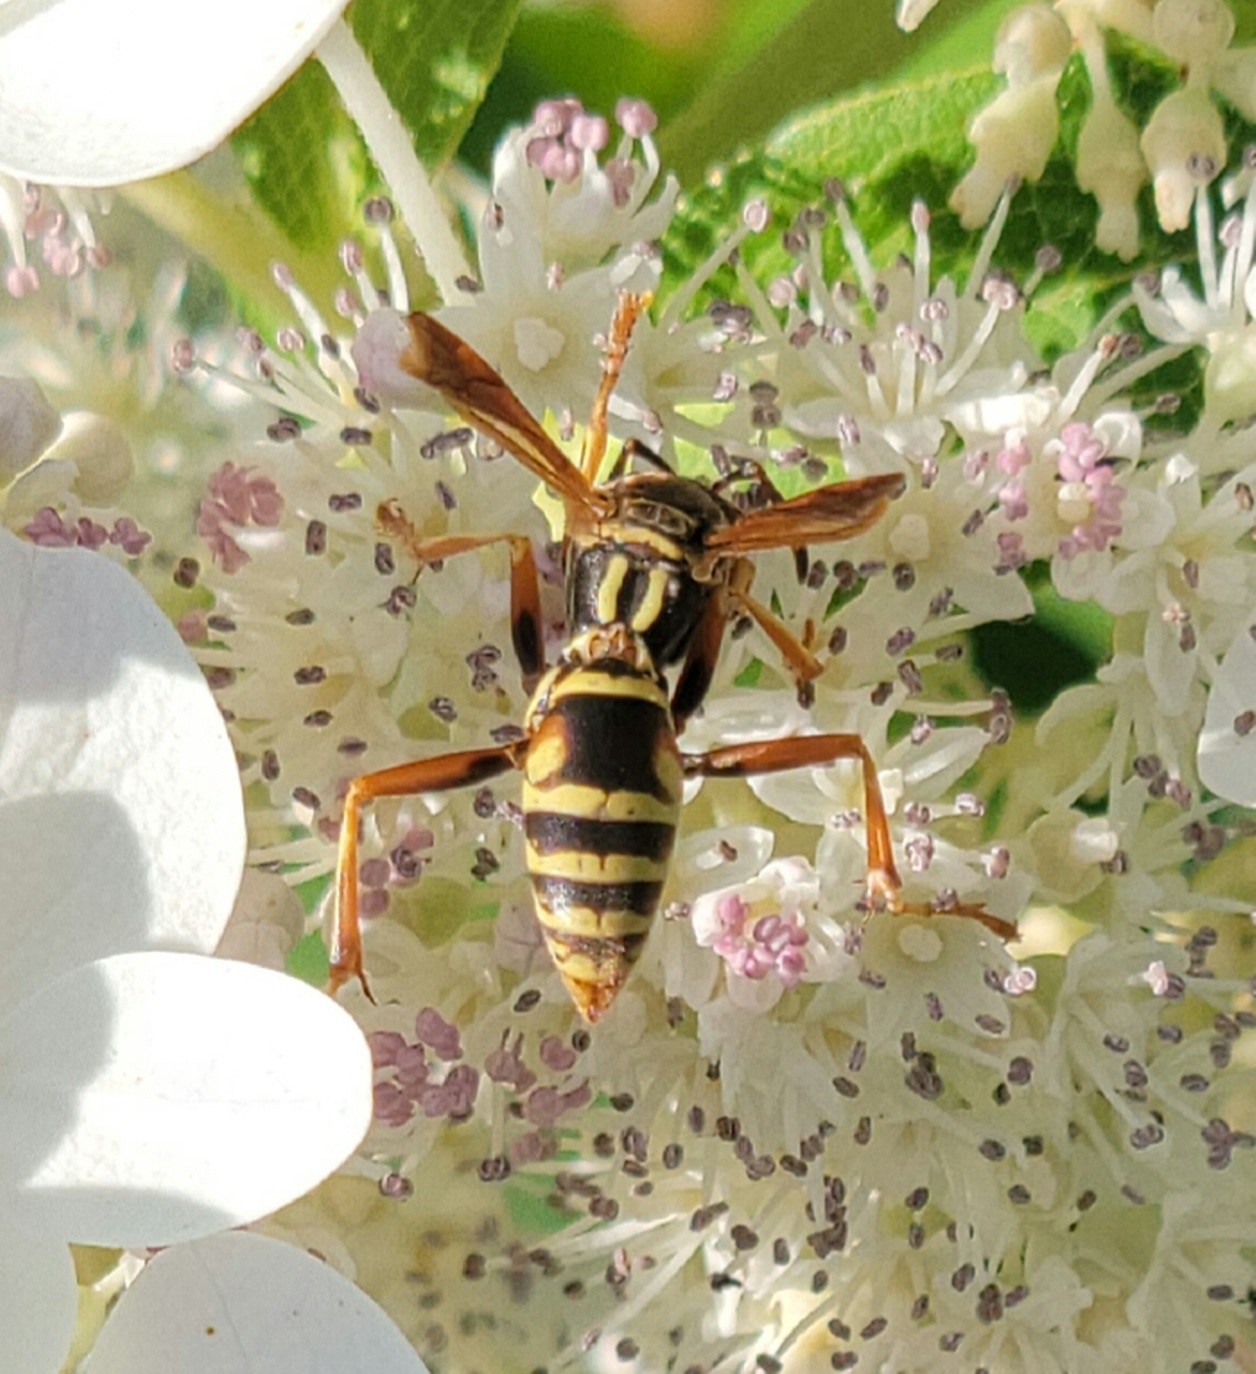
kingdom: Animalia
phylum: Arthropoda
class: Insecta
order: Hymenoptera
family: Eumenidae
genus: Polistes
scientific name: Polistes fuscatus
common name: Dark paper wasp
